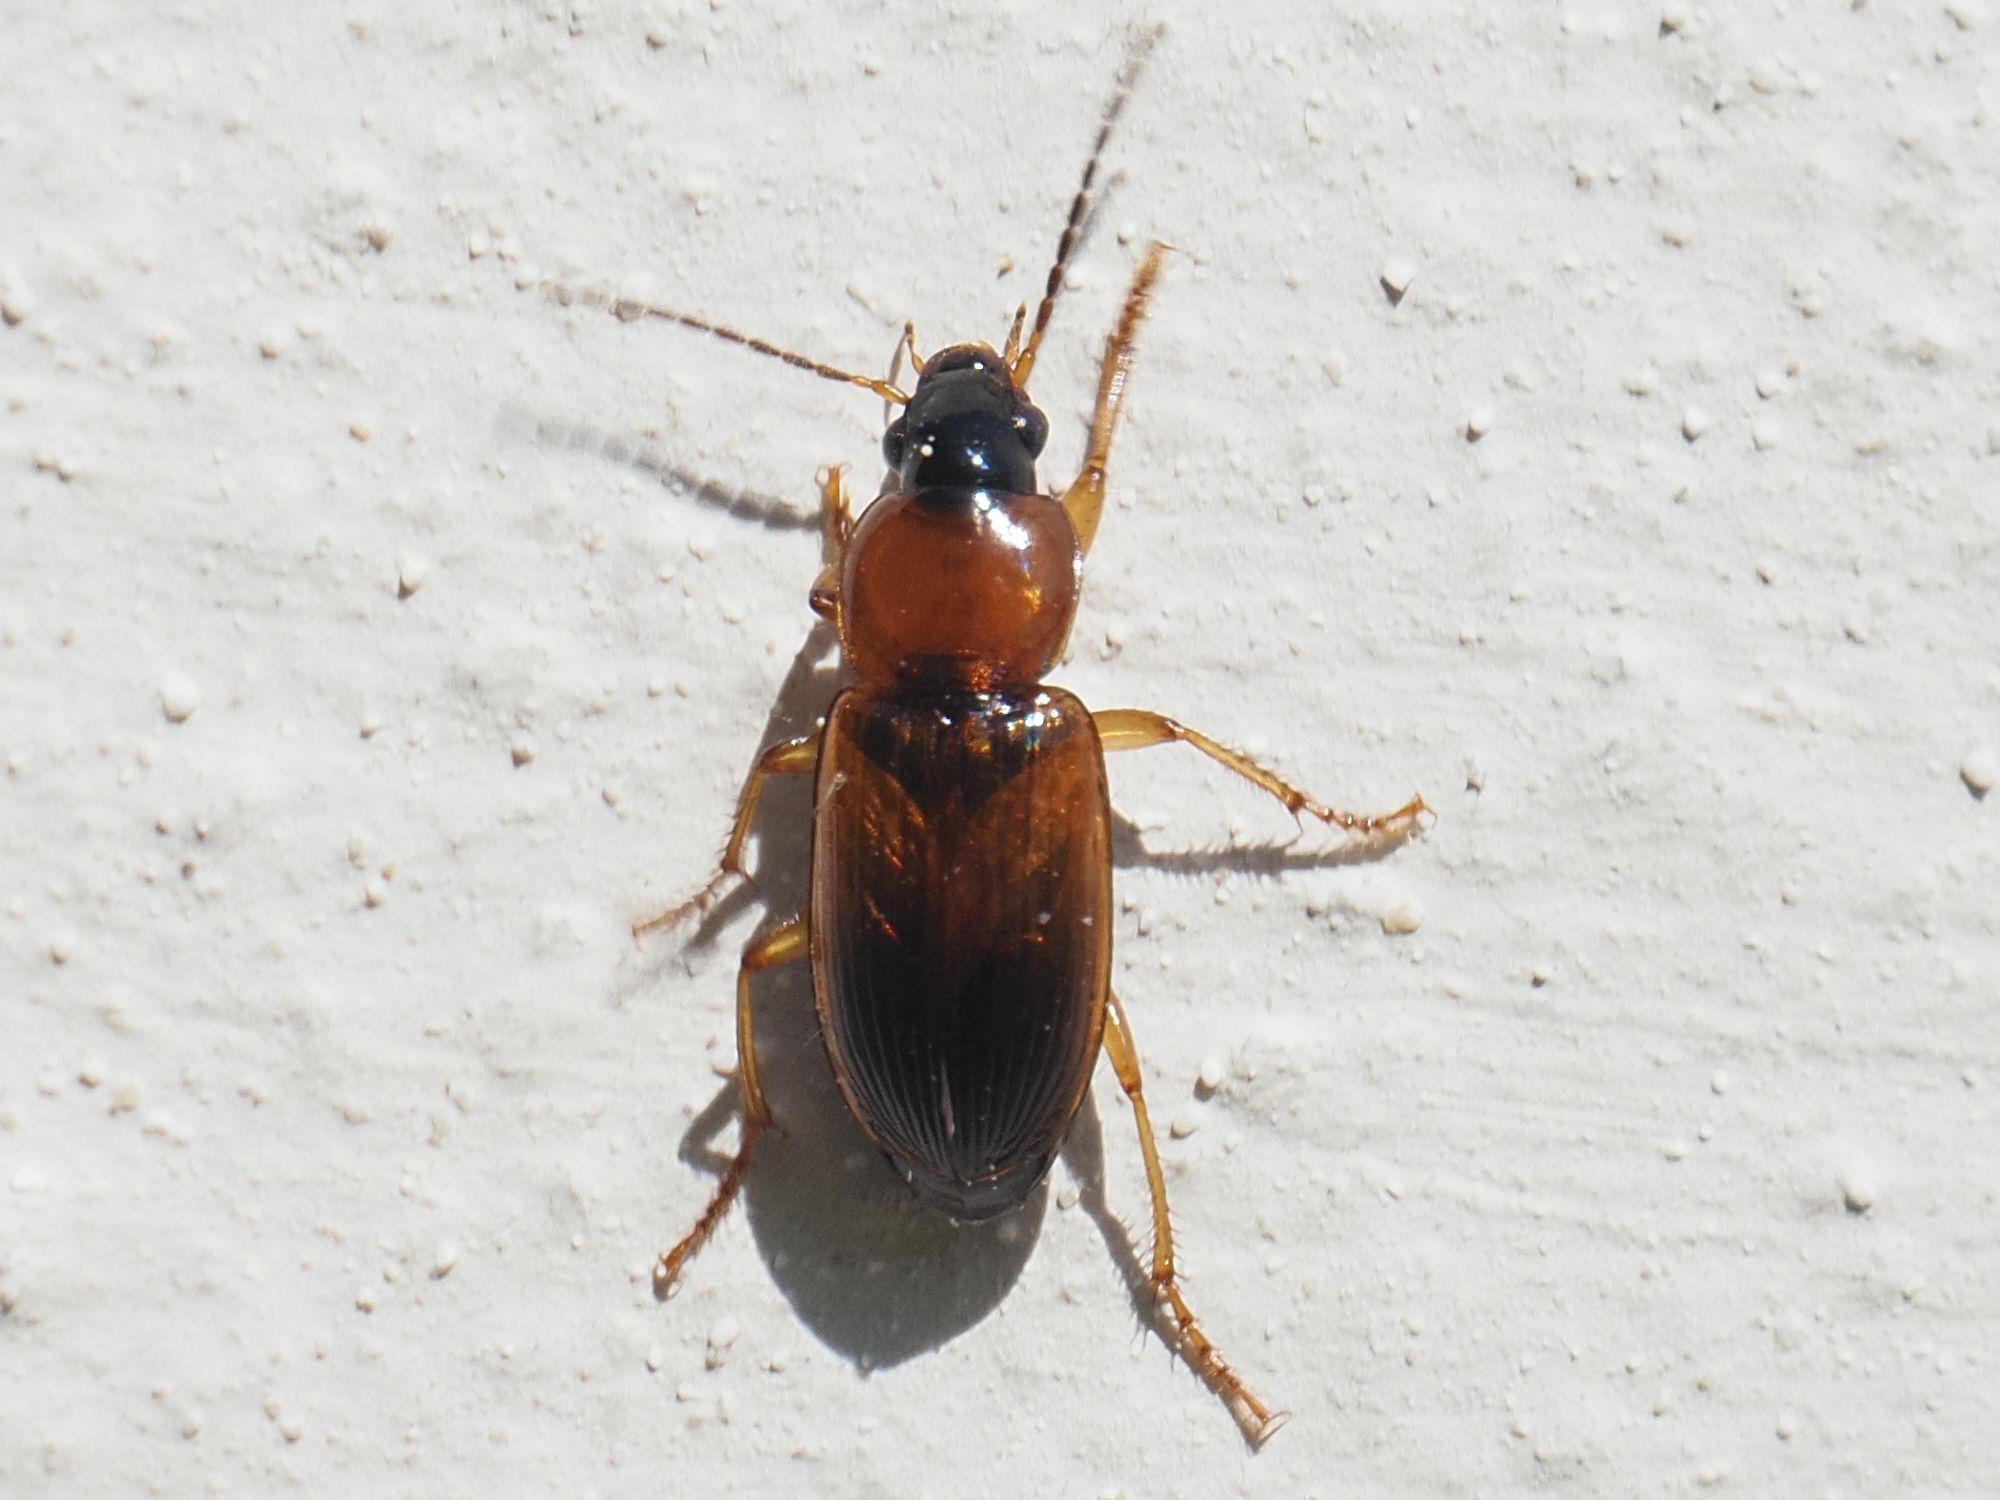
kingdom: Animalia
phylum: Arthropoda
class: Insecta
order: Coleoptera
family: Carabidae
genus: Stenolophus
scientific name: Stenolophus skrimshiranus
